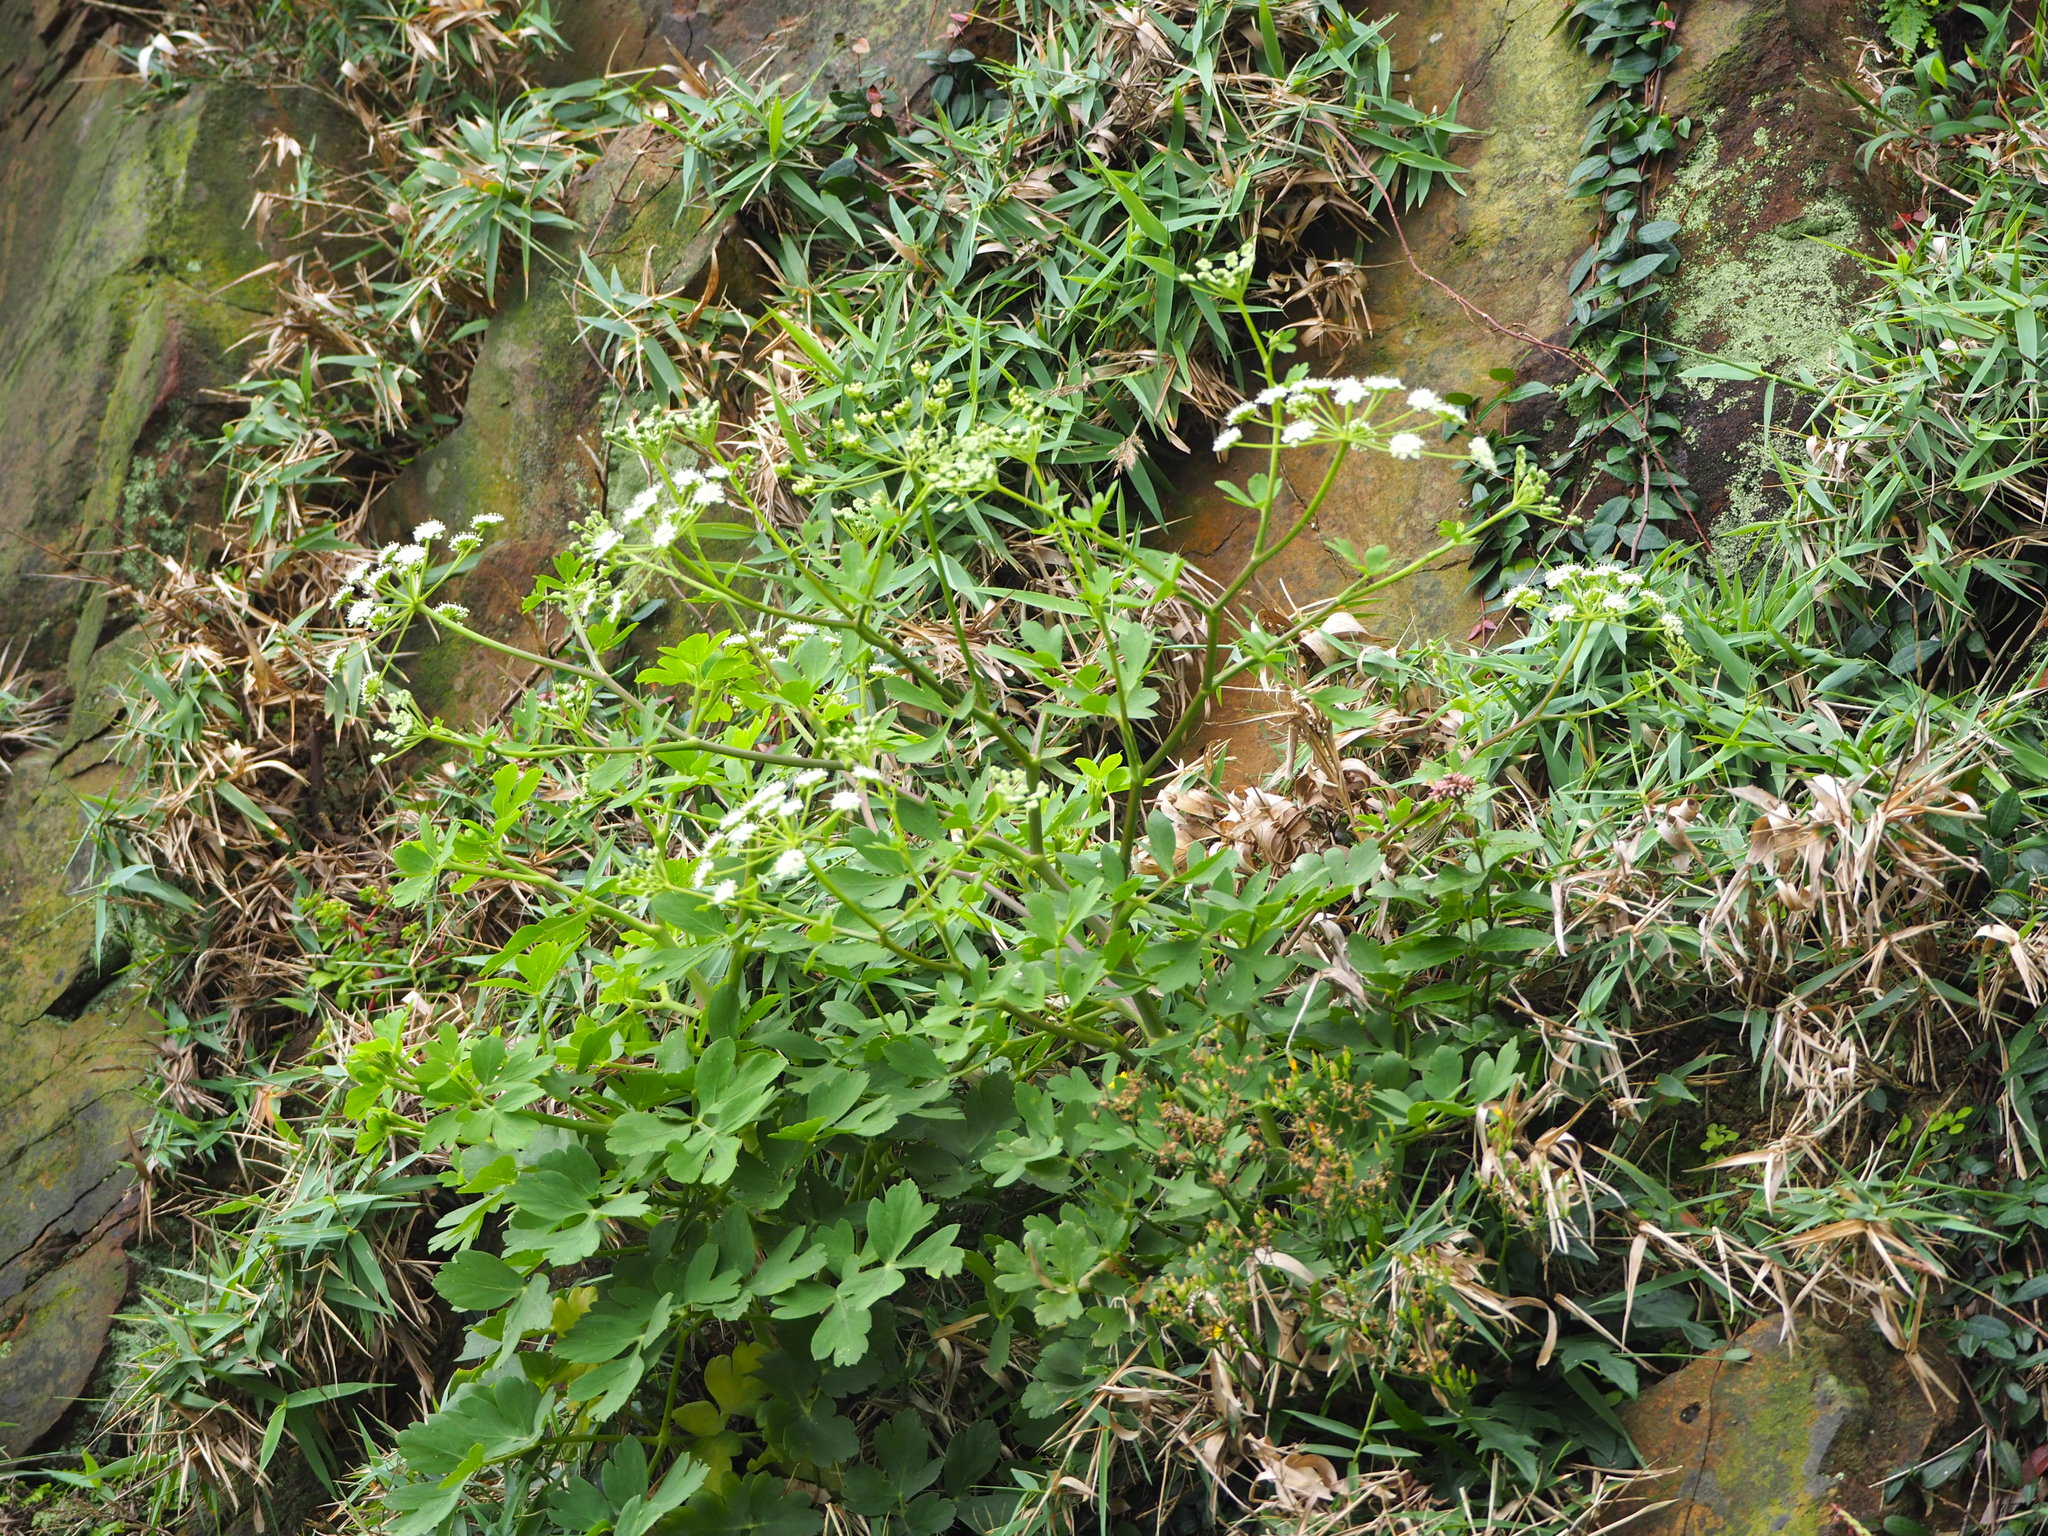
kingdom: Plantae
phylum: Tracheophyta
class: Magnoliopsida
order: Apiales
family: Apiaceae
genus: Peucedanum
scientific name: Peucedanum japonicum
